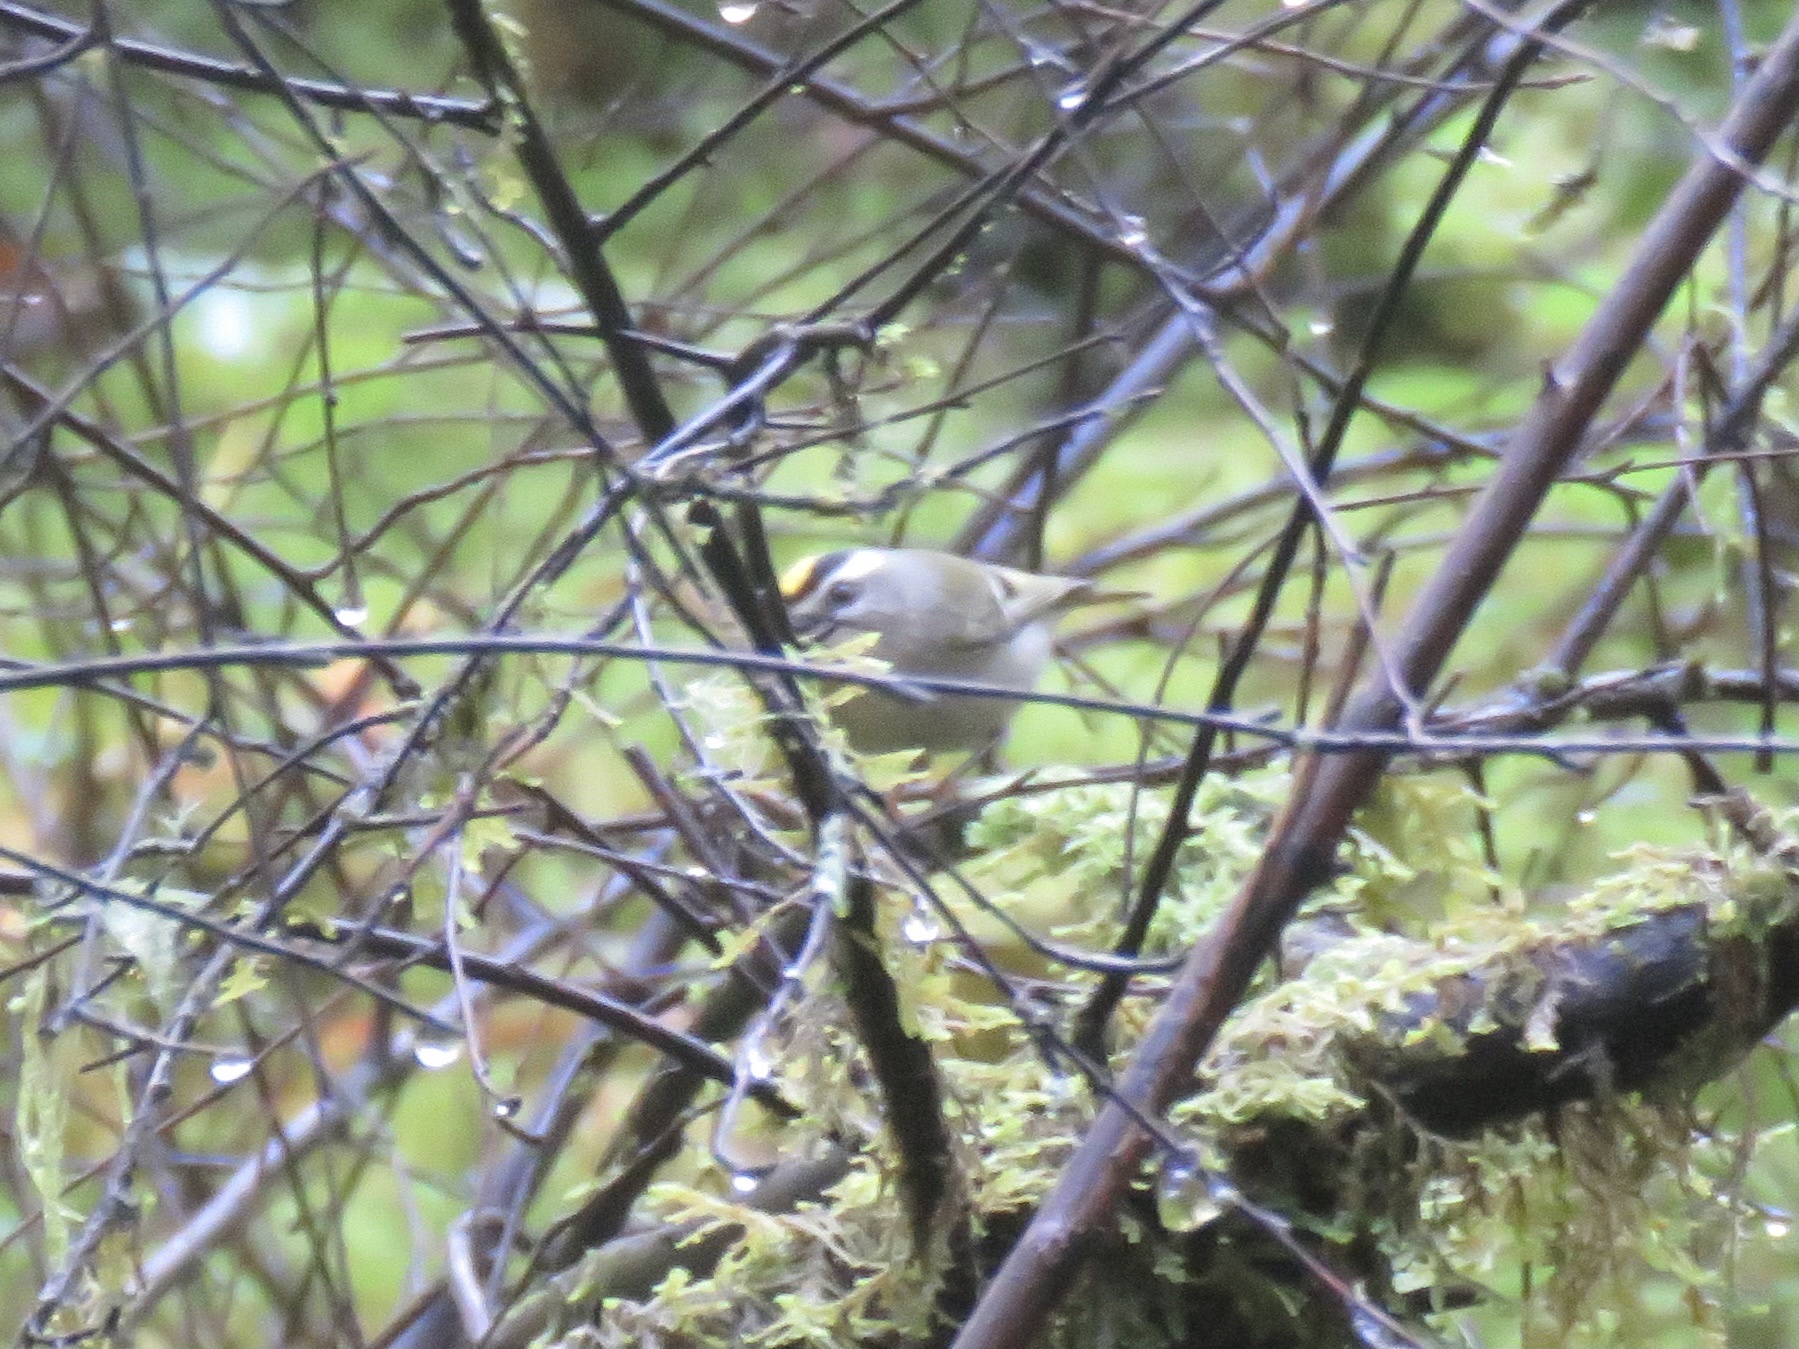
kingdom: Animalia
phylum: Chordata
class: Aves
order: Passeriformes
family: Regulidae
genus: Regulus
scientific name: Regulus satrapa
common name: Golden-crowned kinglet
